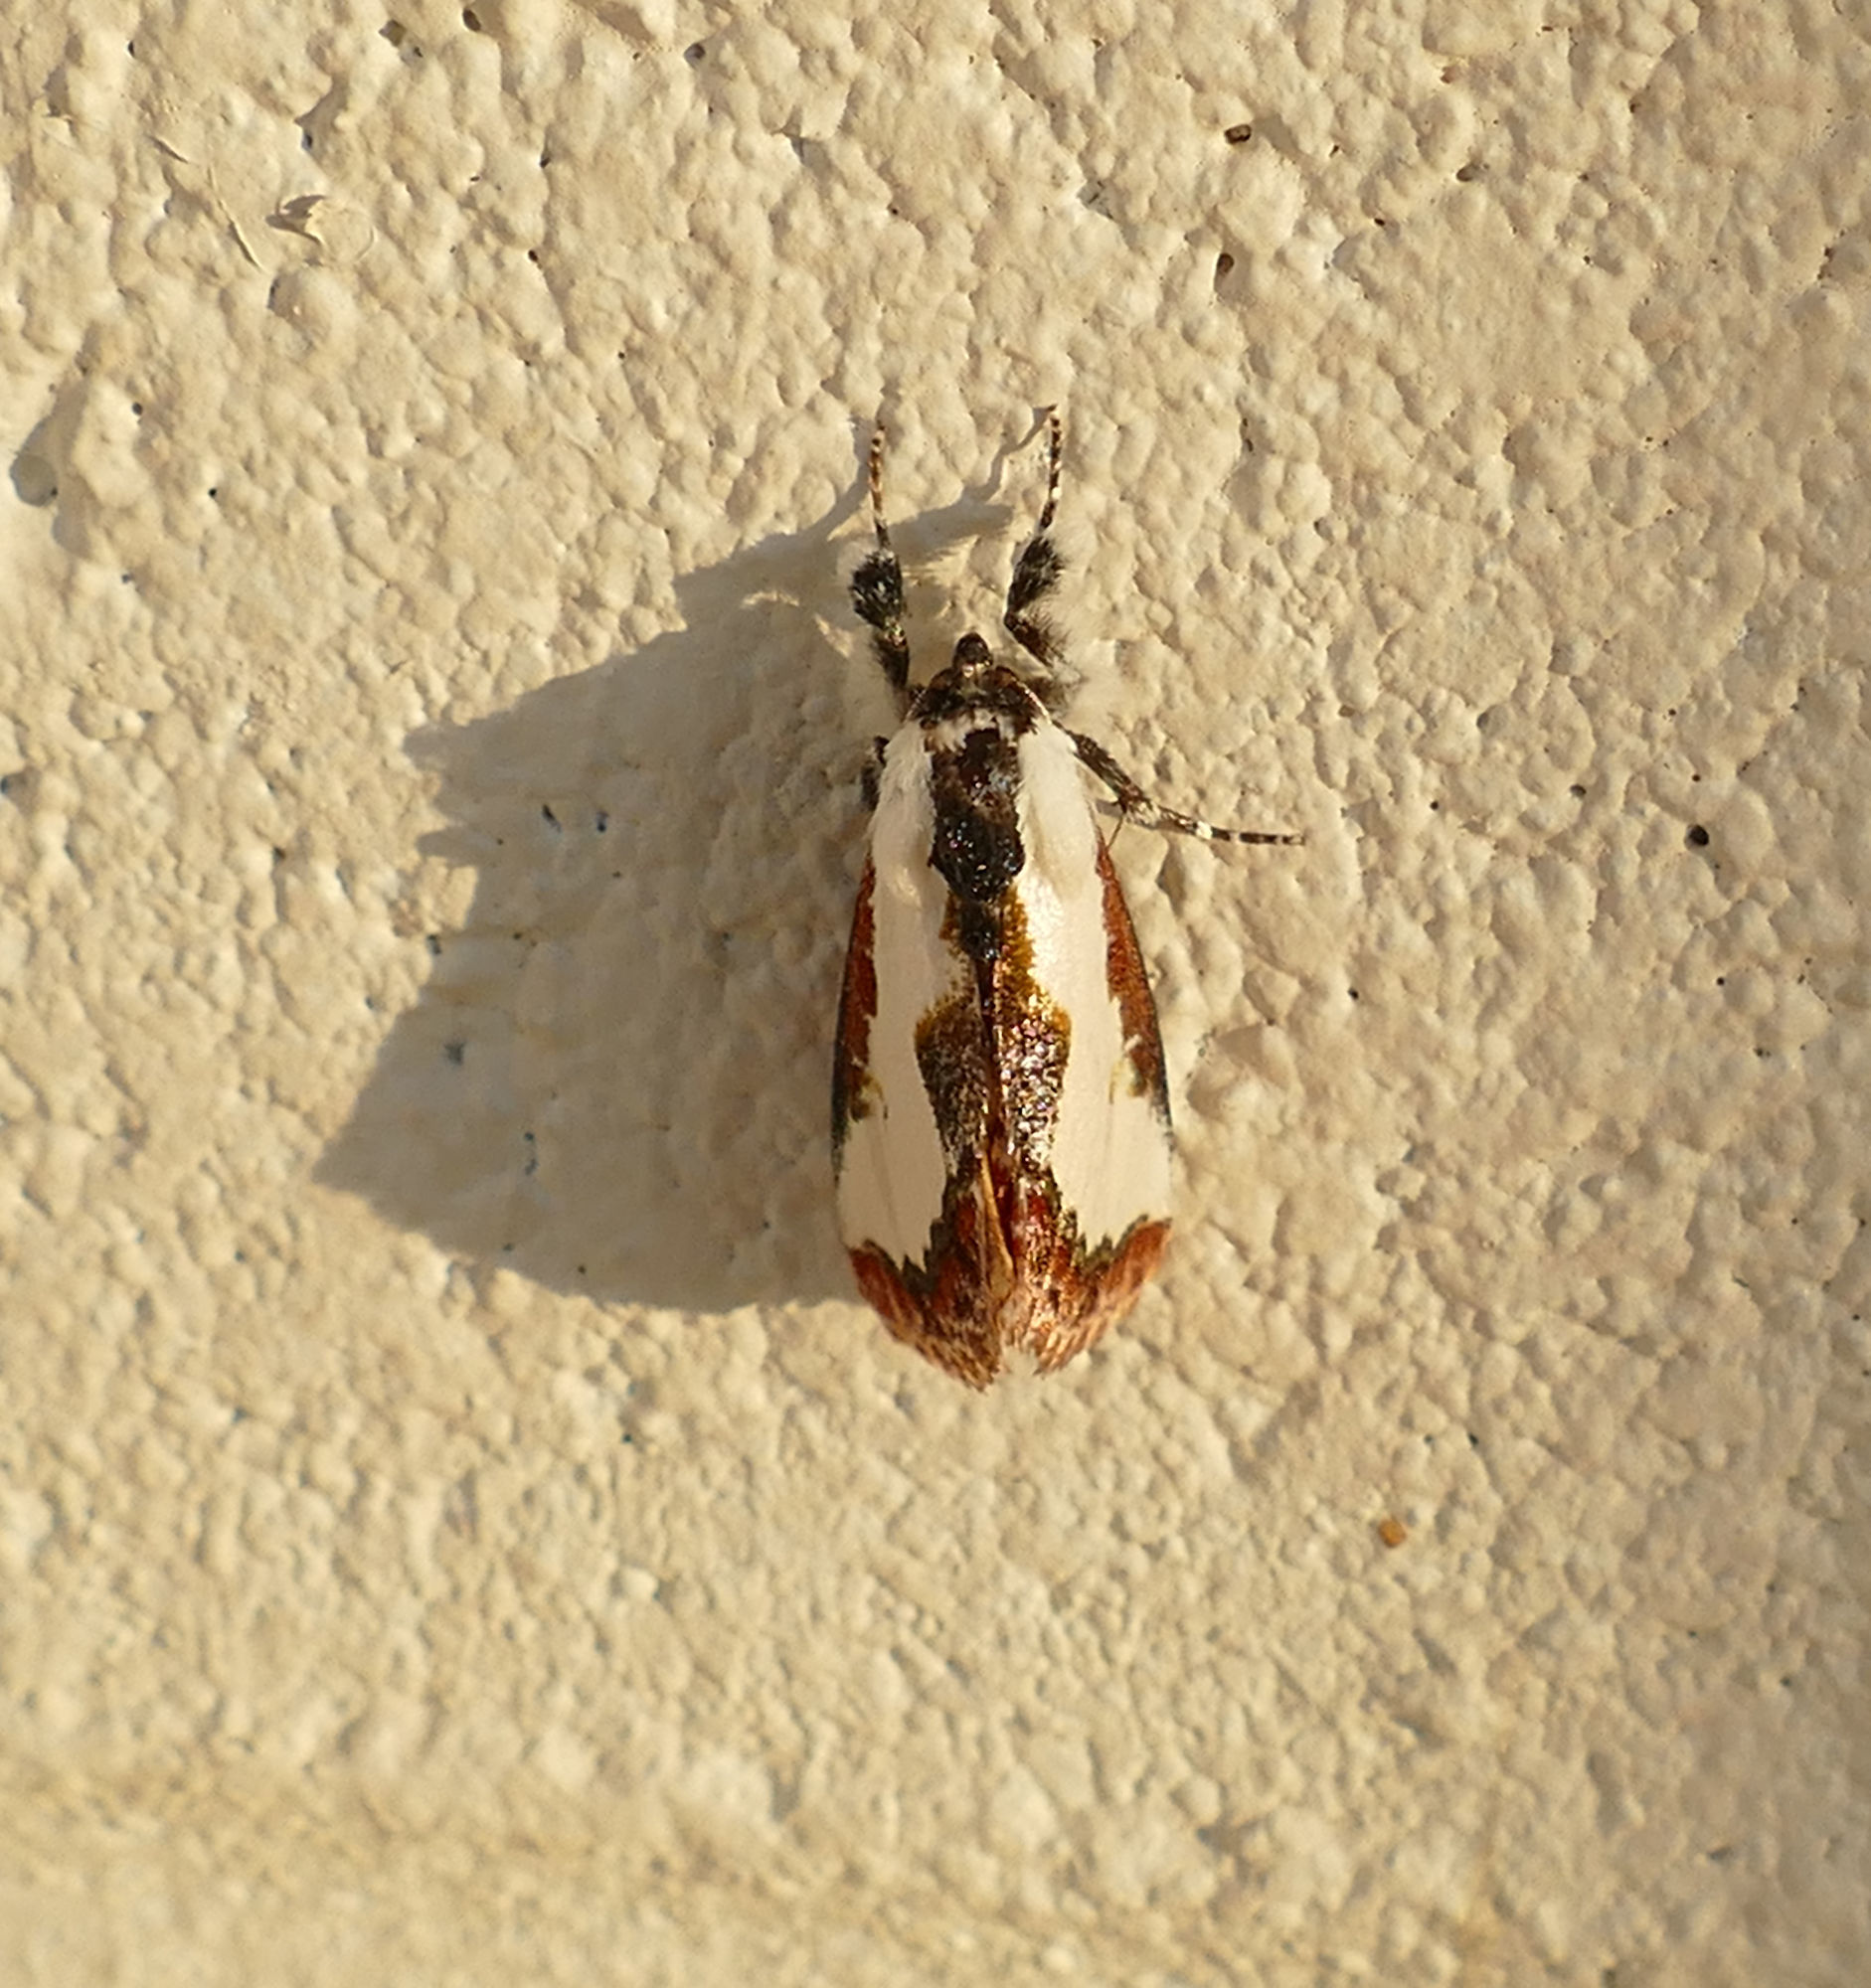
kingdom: Animalia
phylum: Arthropoda
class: Insecta
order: Lepidoptera
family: Noctuidae
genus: Eudryas
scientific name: Eudryas unio
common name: Pearly wood-nymph
